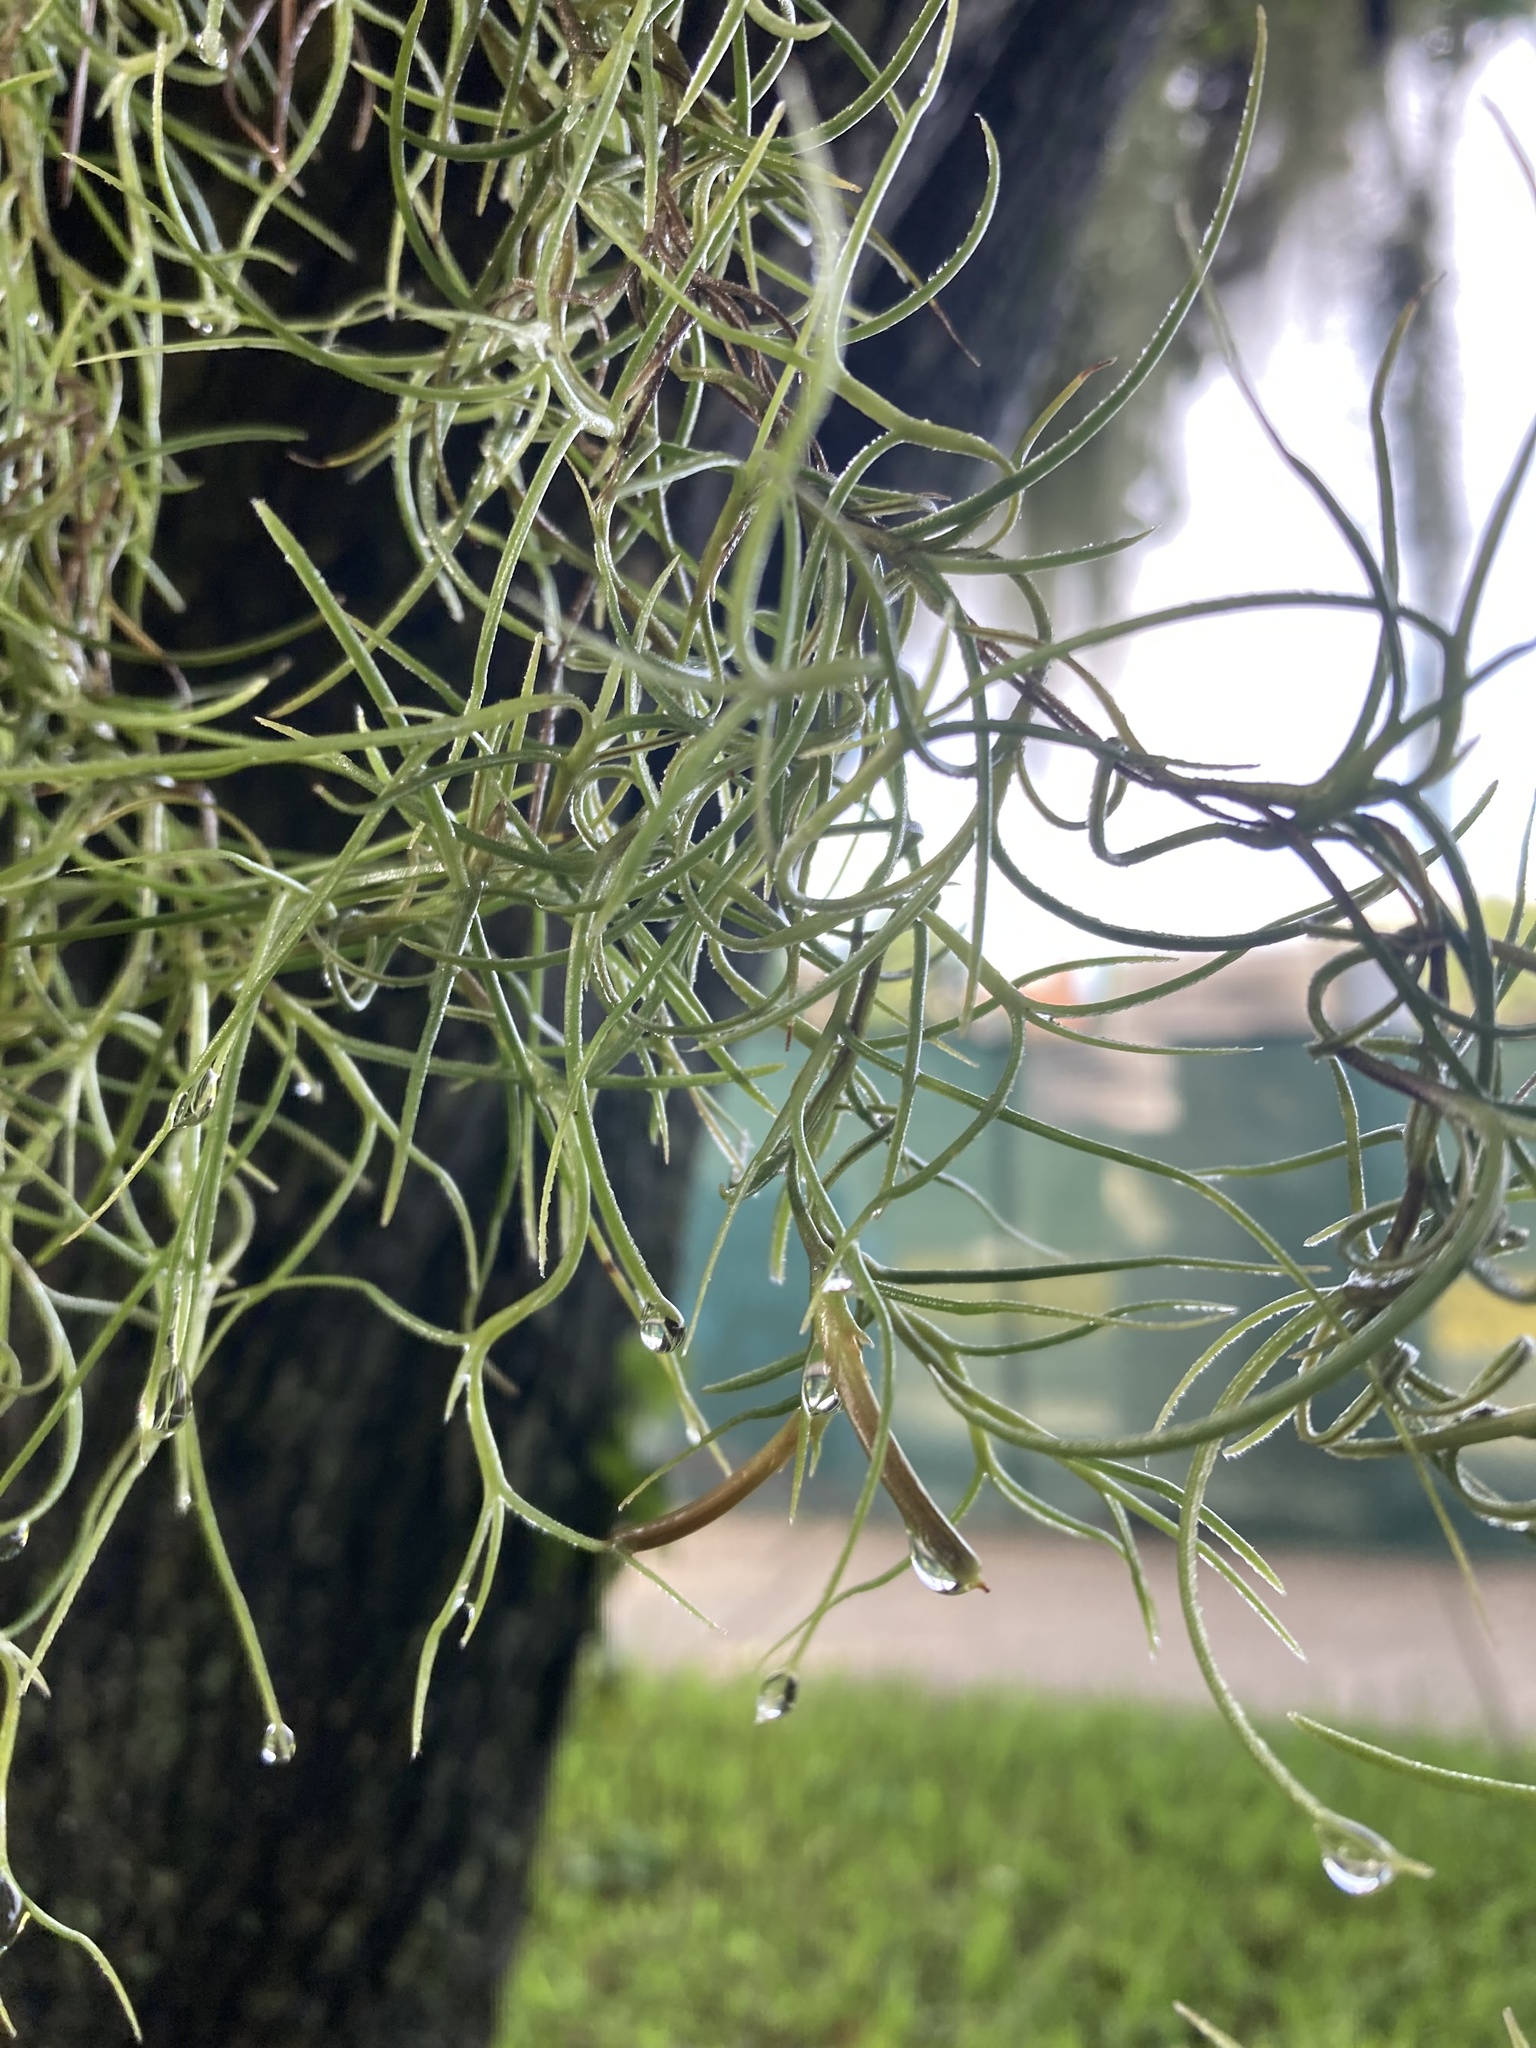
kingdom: Plantae
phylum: Tracheophyta
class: Liliopsida
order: Poales
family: Bromeliaceae
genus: Tillandsia
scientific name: Tillandsia usneoides
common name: Spanish moss
